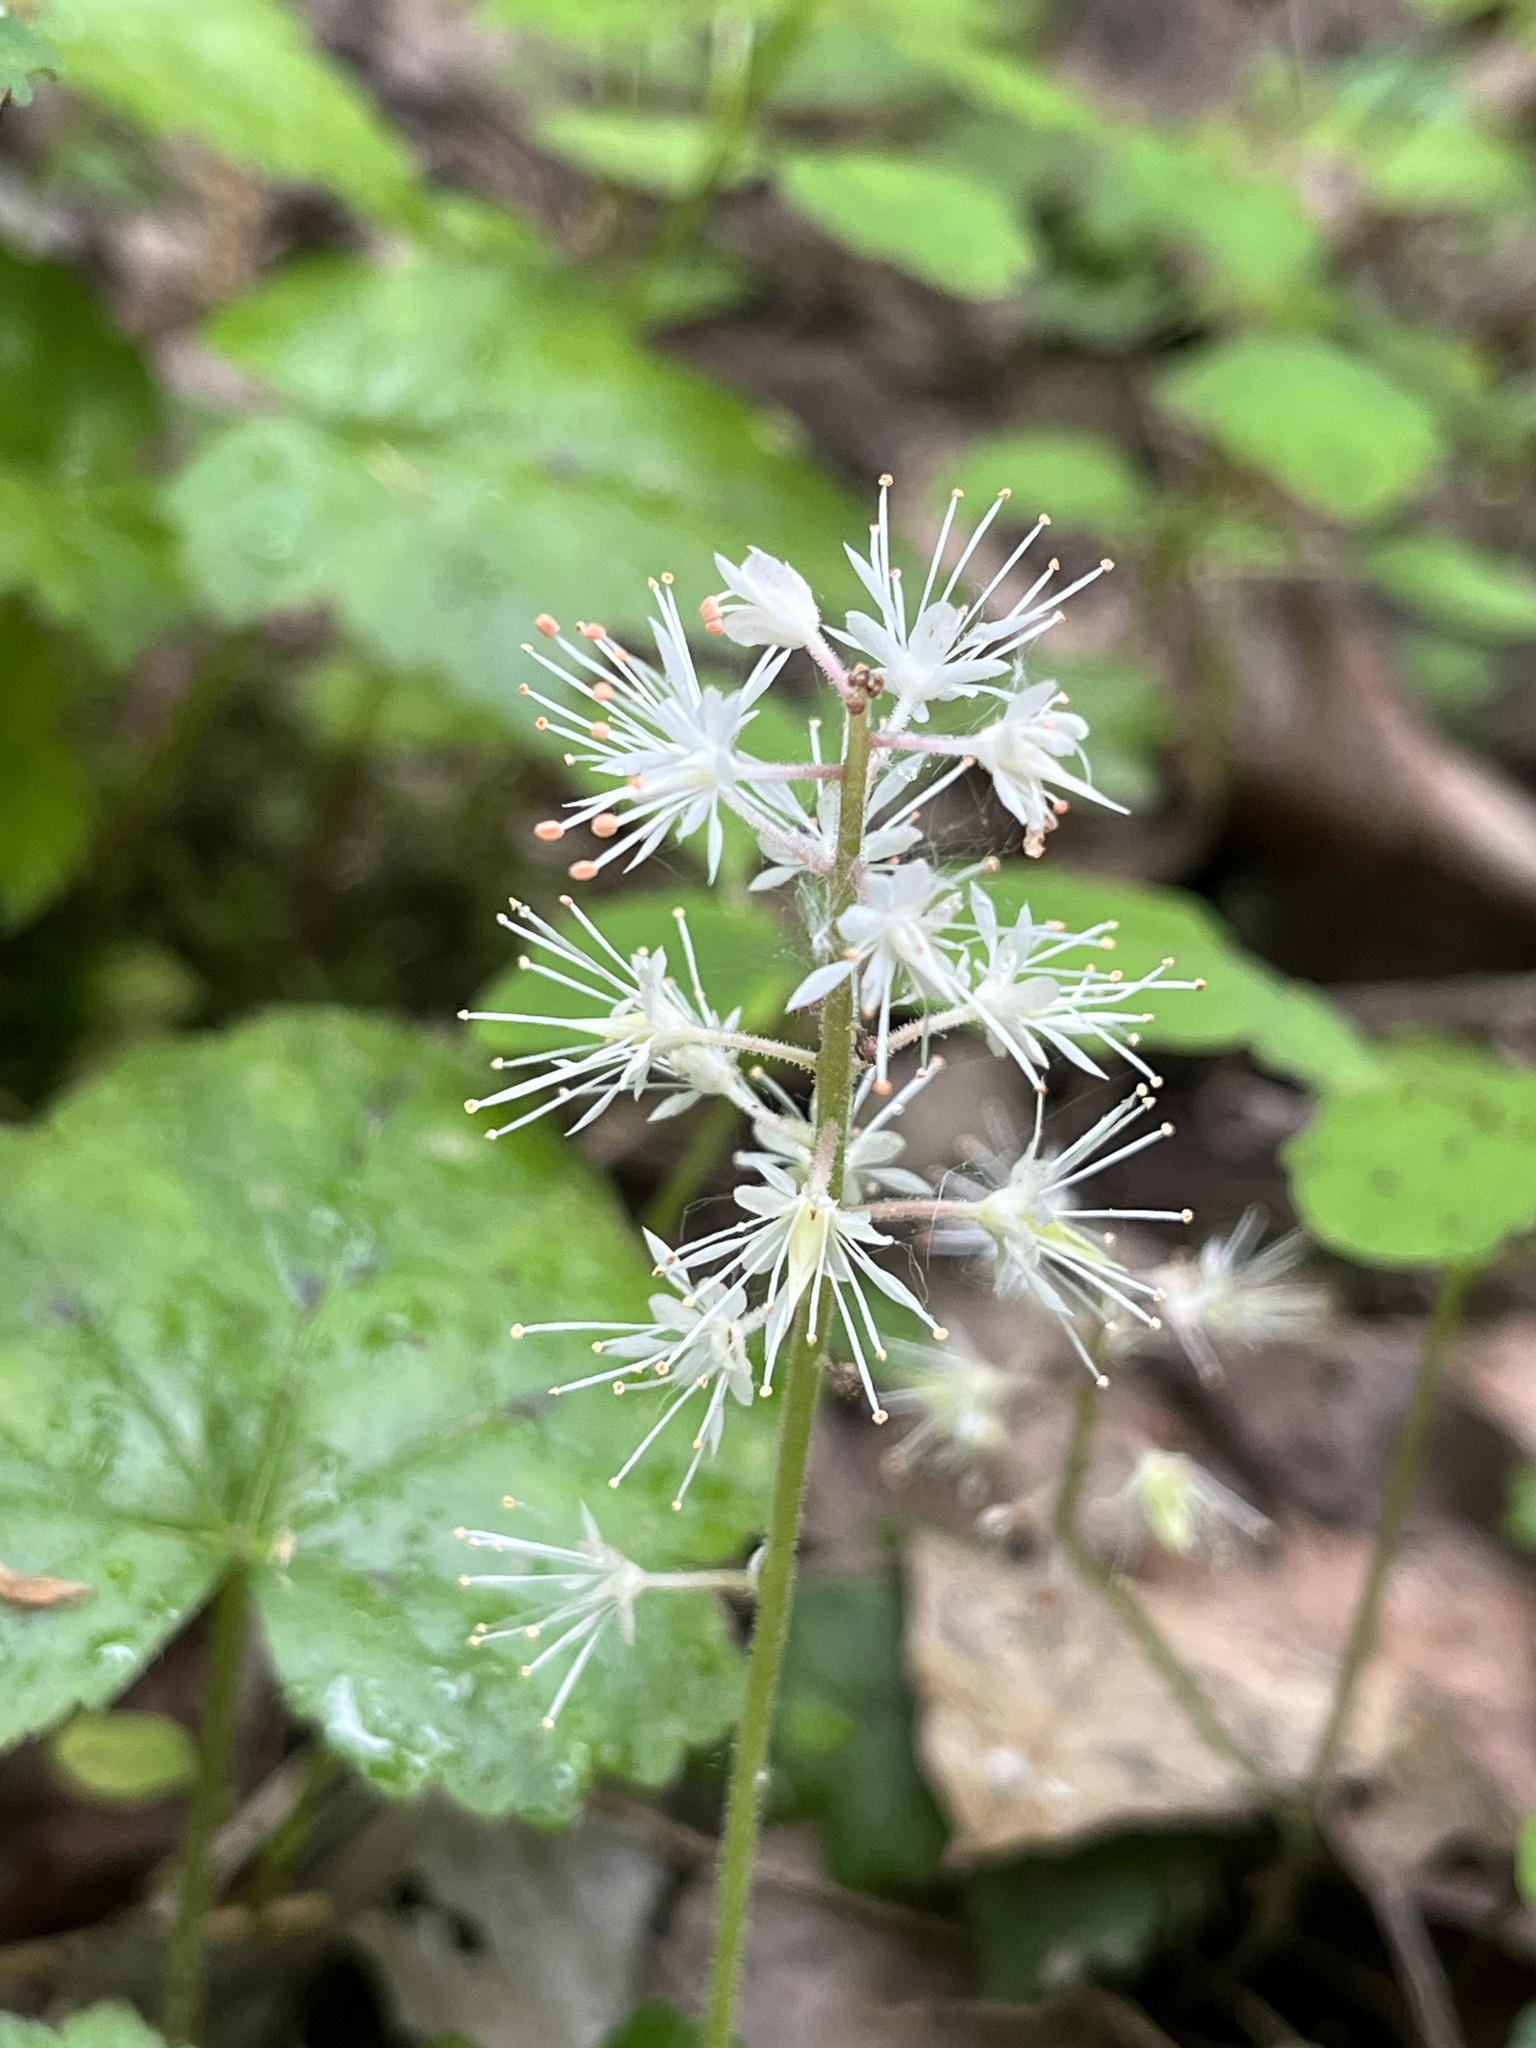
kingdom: Plantae
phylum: Tracheophyta
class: Magnoliopsida
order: Saxifragales
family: Saxifragaceae
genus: Tiarella
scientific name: Tiarella stolonifera
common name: Stoloniferous foamflower
